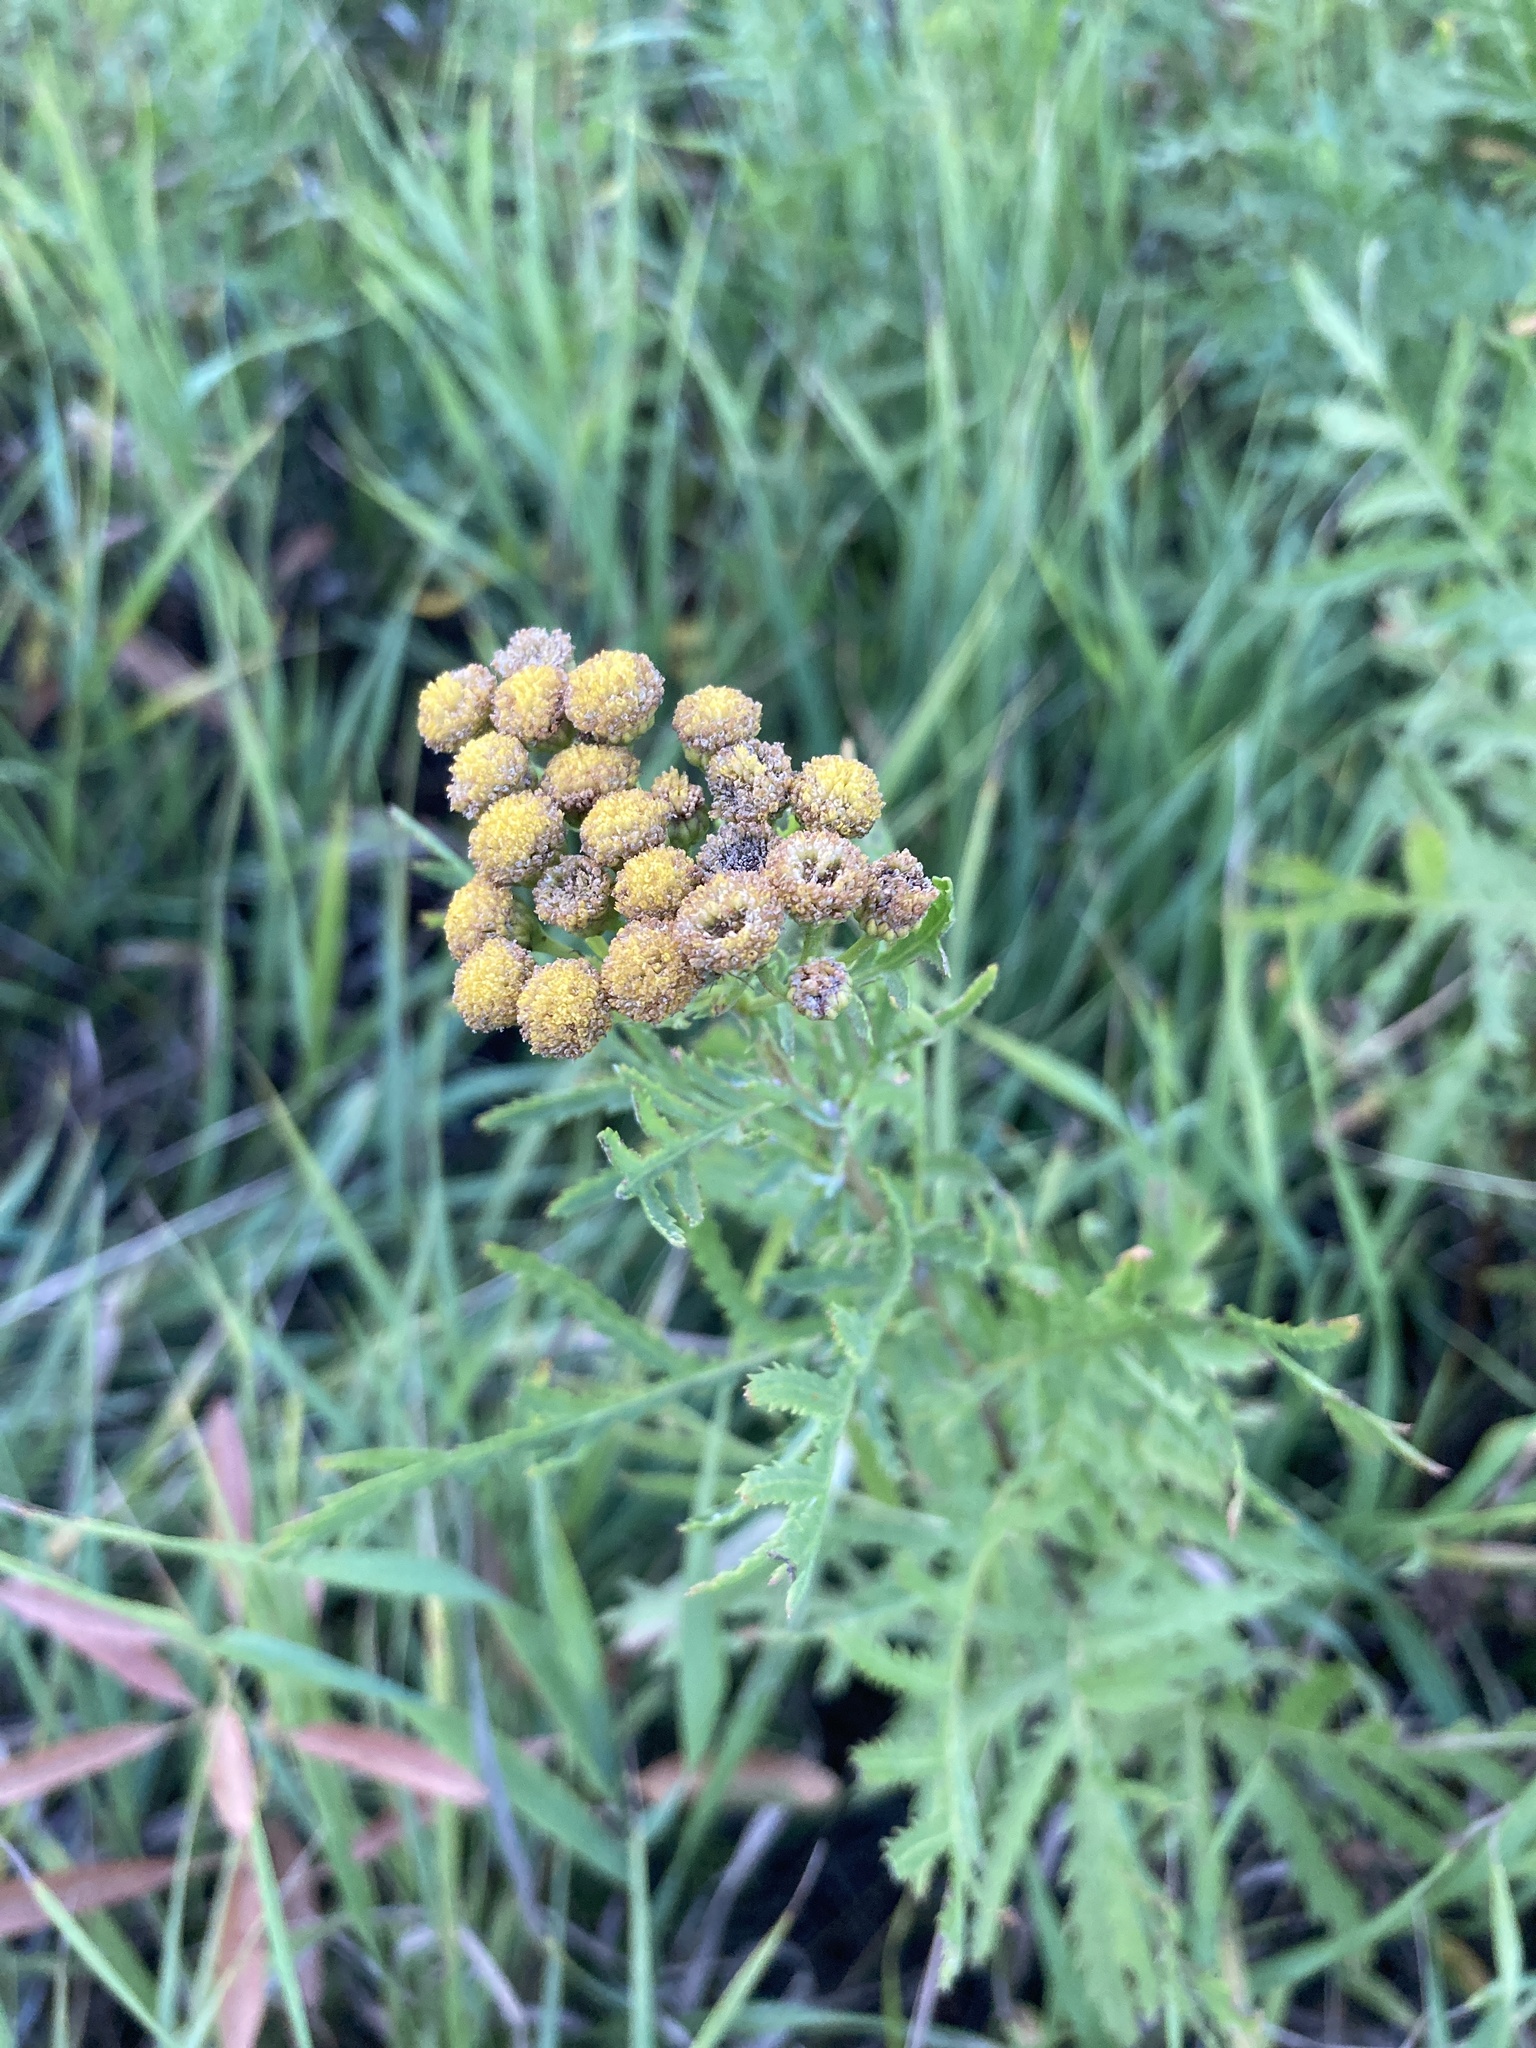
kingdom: Plantae
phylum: Tracheophyta
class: Magnoliopsida
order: Asterales
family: Asteraceae
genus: Tanacetum
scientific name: Tanacetum vulgare
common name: Common tansy
